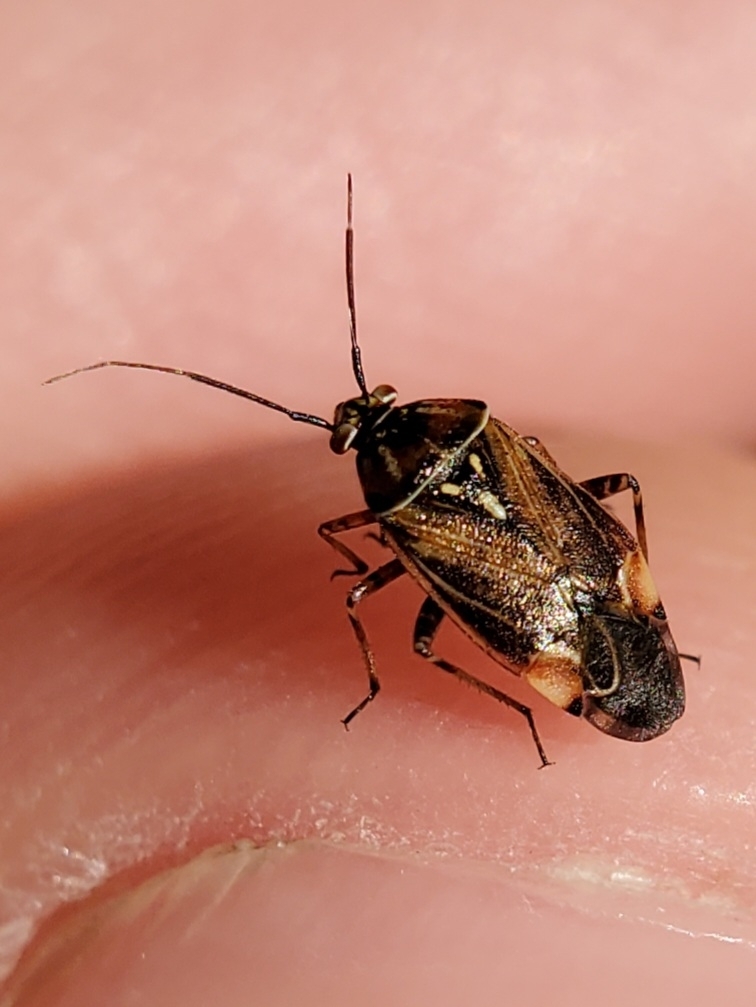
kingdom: Animalia
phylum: Arthropoda
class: Insecta
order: Hemiptera
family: Miridae
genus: Lygus
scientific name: Lygus lineolaris
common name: North american tarnished plant bug
